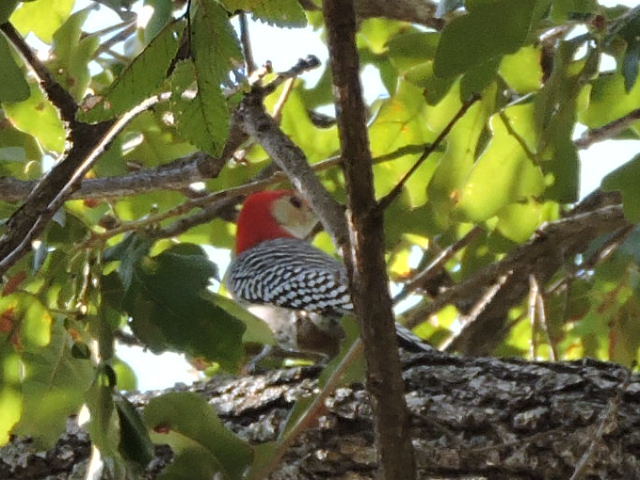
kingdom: Animalia
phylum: Chordata
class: Aves
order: Piciformes
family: Picidae
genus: Melanerpes
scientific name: Melanerpes carolinus
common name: Red-bellied woodpecker
